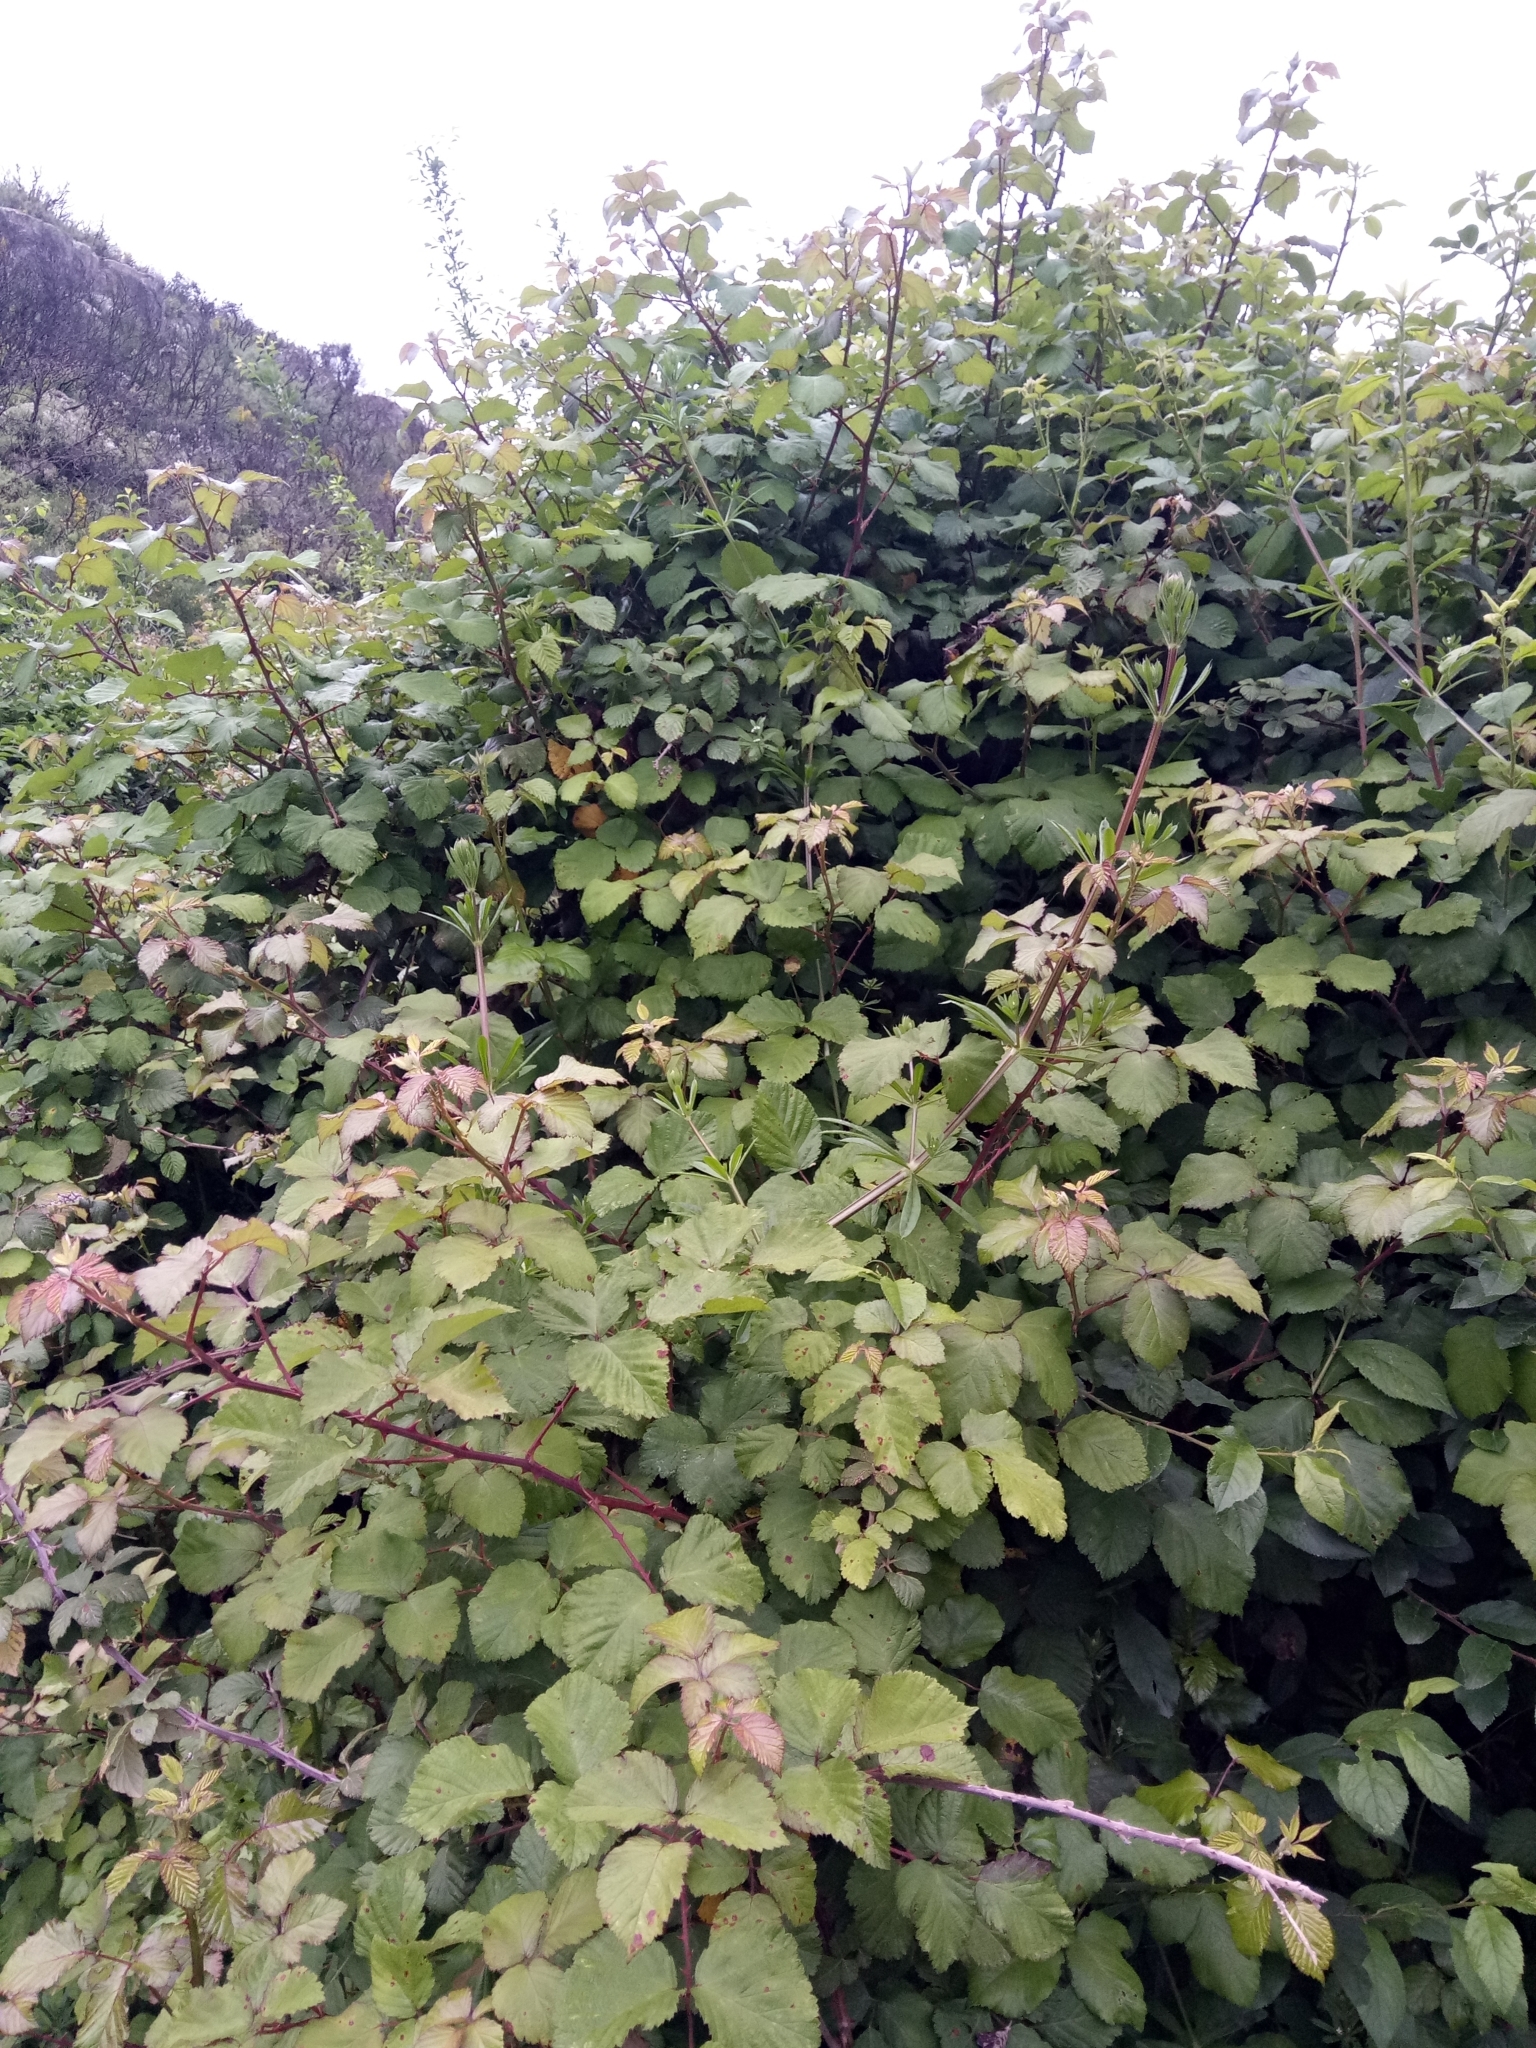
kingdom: Plantae
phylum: Tracheophyta
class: Magnoliopsida
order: Rosales
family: Rosaceae
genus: Rubus
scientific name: Rubus ulmifolius
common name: Elmleaf blackberry
